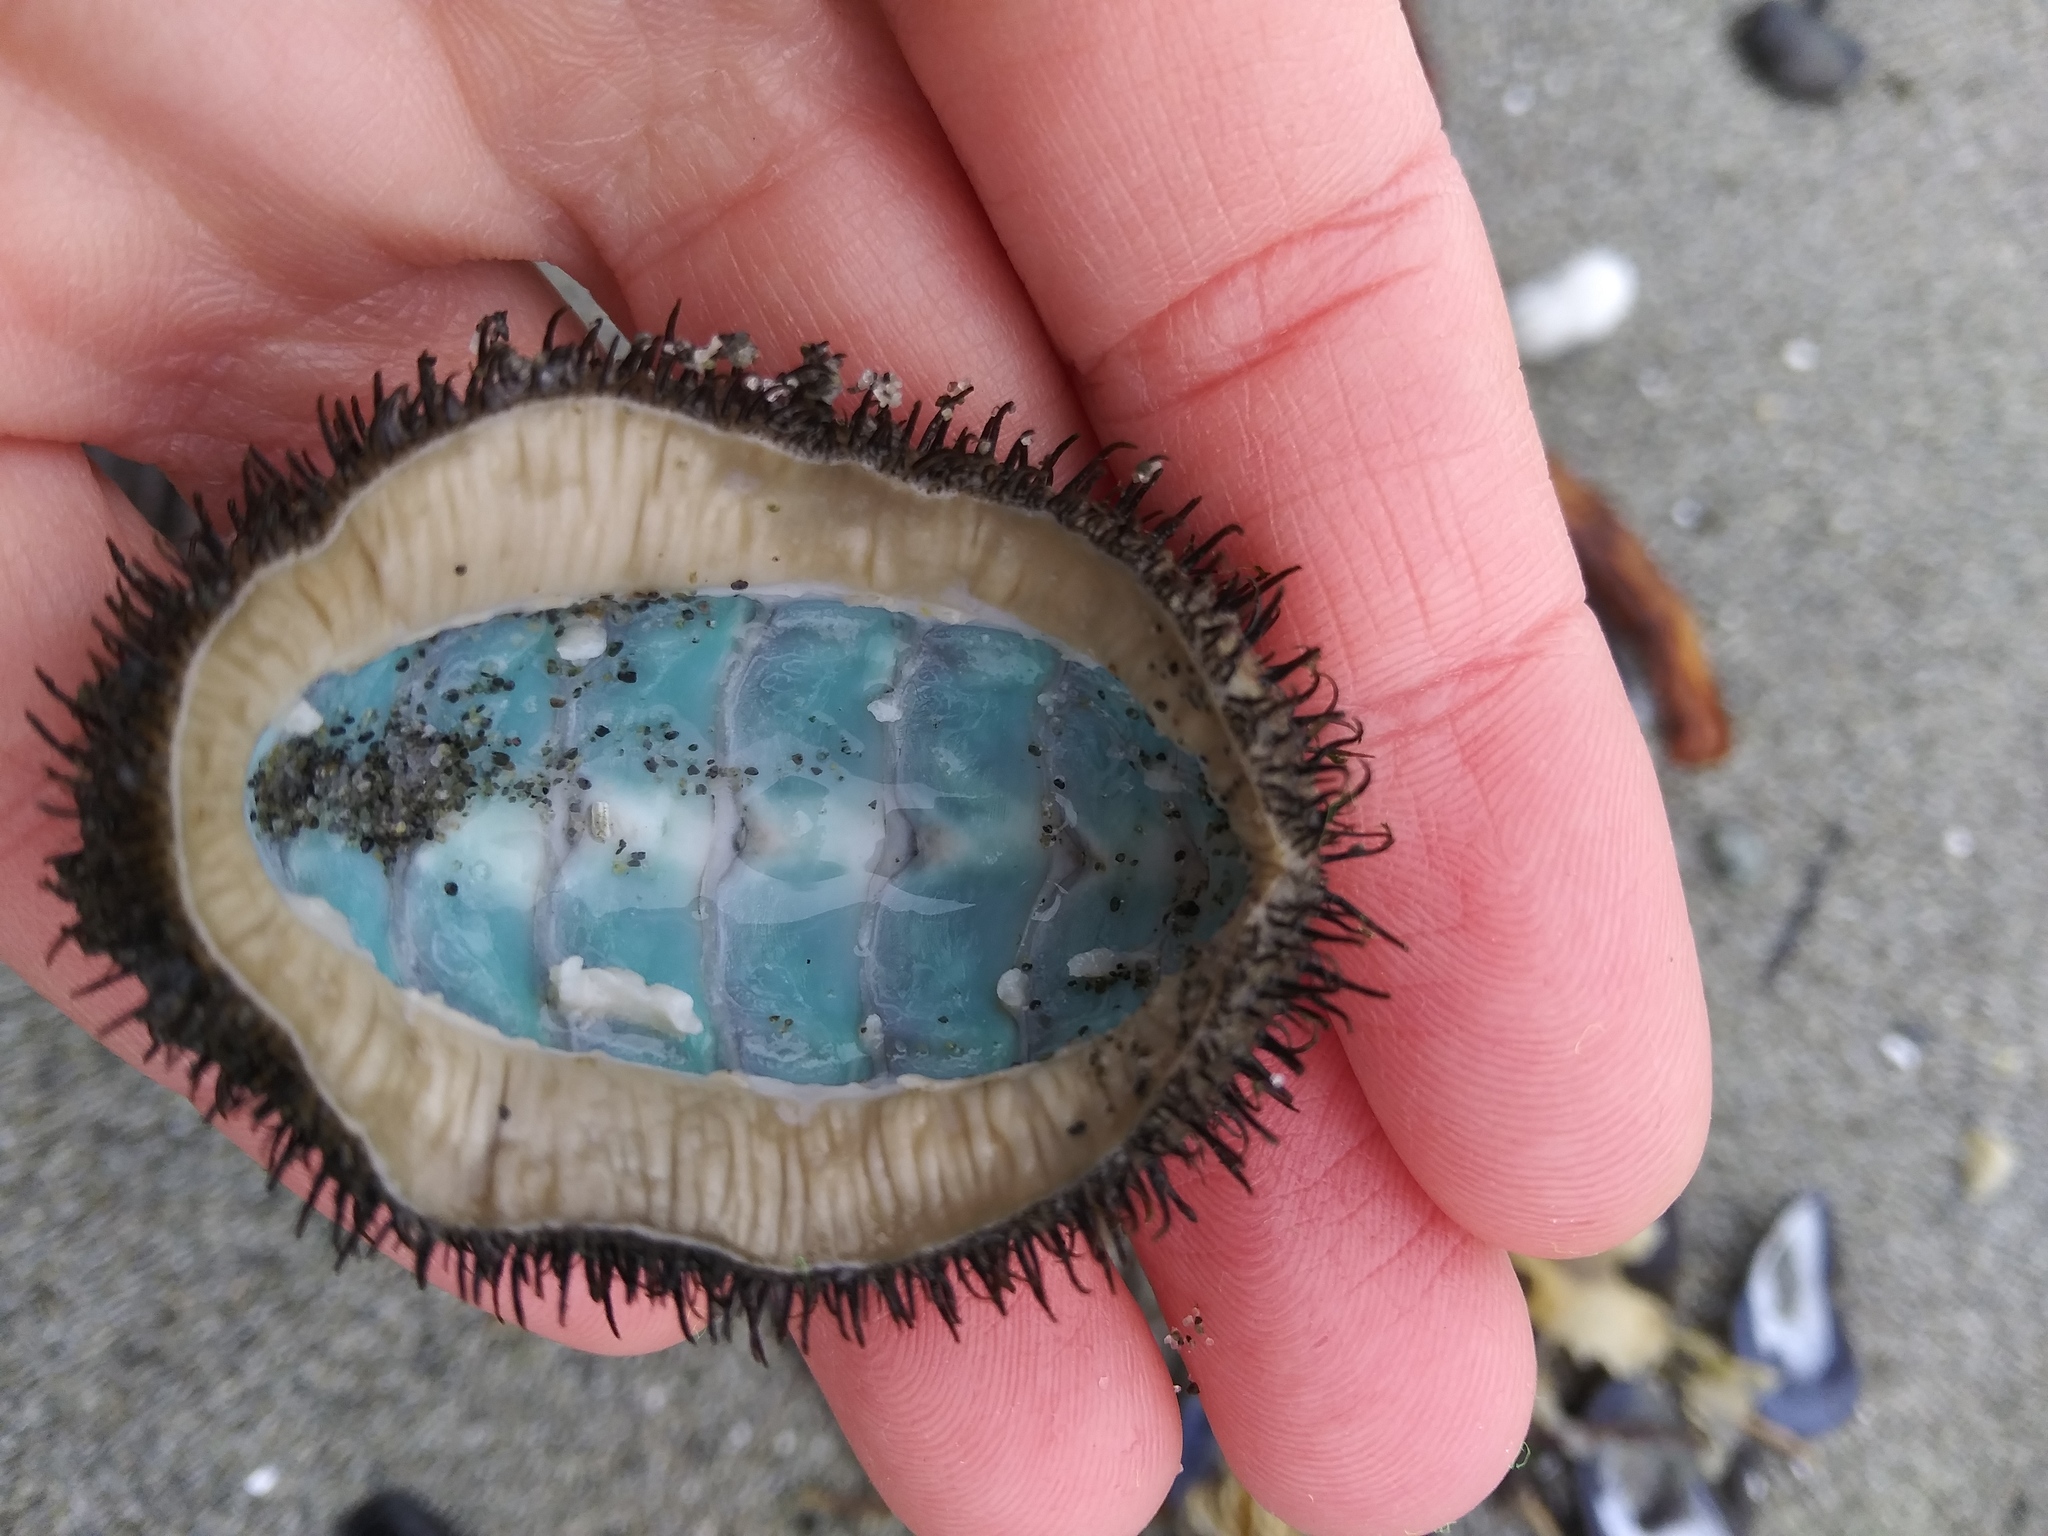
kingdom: Animalia
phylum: Mollusca
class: Polyplacophora
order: Chitonida
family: Mopaliidae
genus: Mopalia
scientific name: Mopalia muscosa
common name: Mossy chiton
